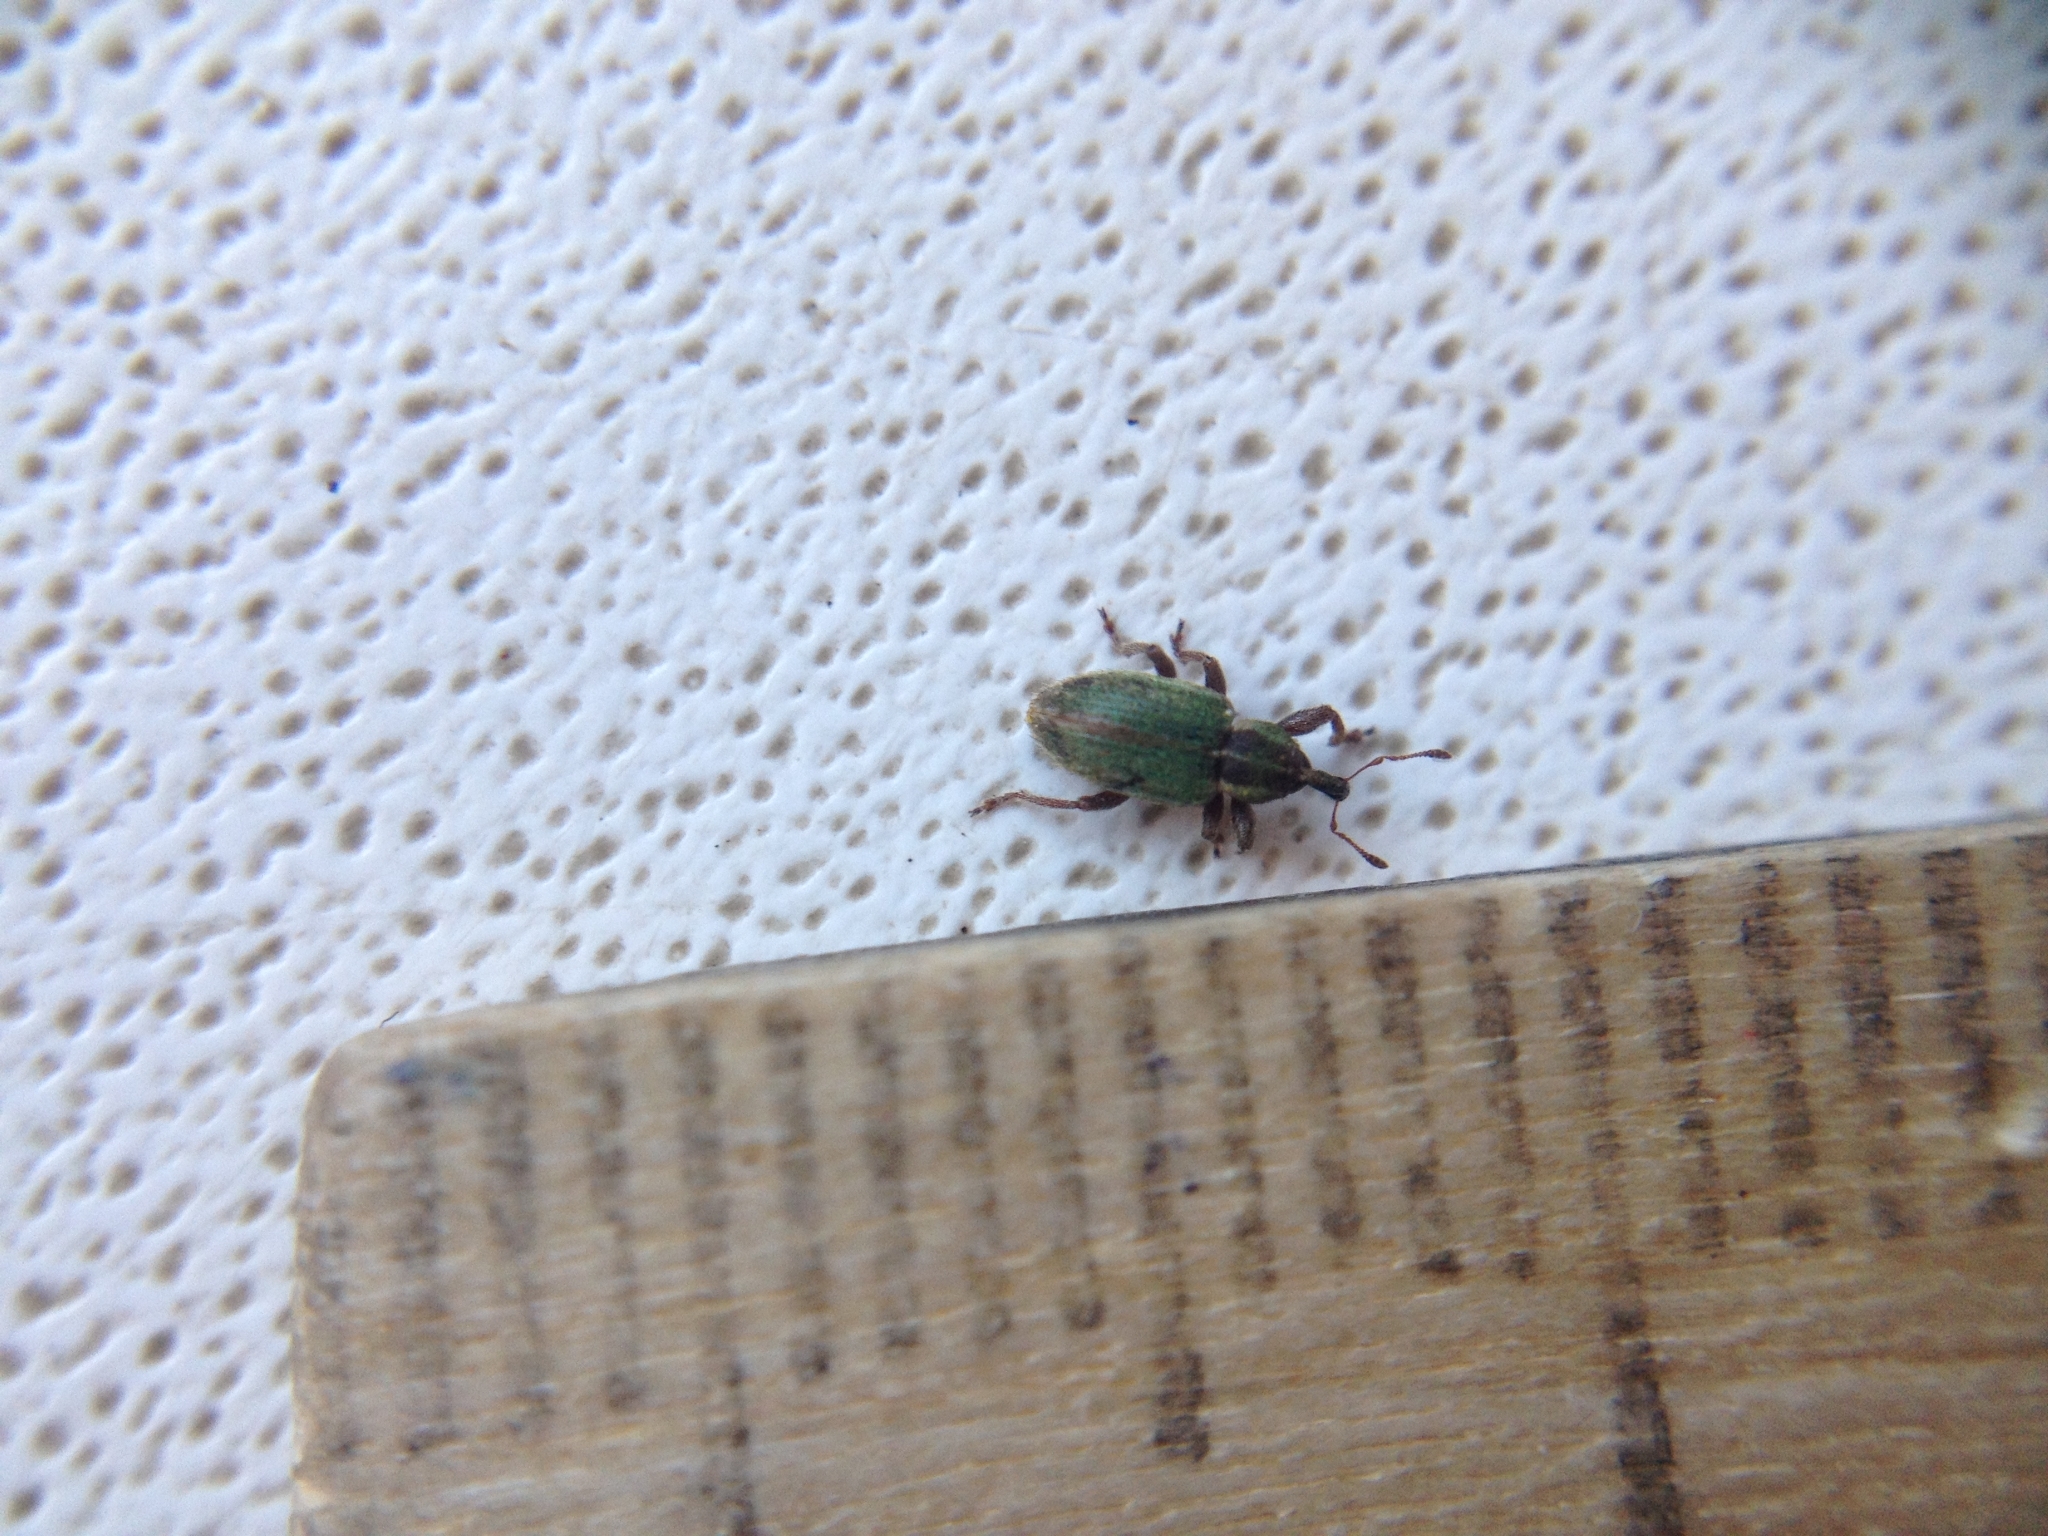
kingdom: Animalia
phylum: Arthropoda
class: Insecta
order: Coleoptera
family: Curculionidae
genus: Hypera
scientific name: Hypera nigrirostris
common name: Black-beaked green weevil
